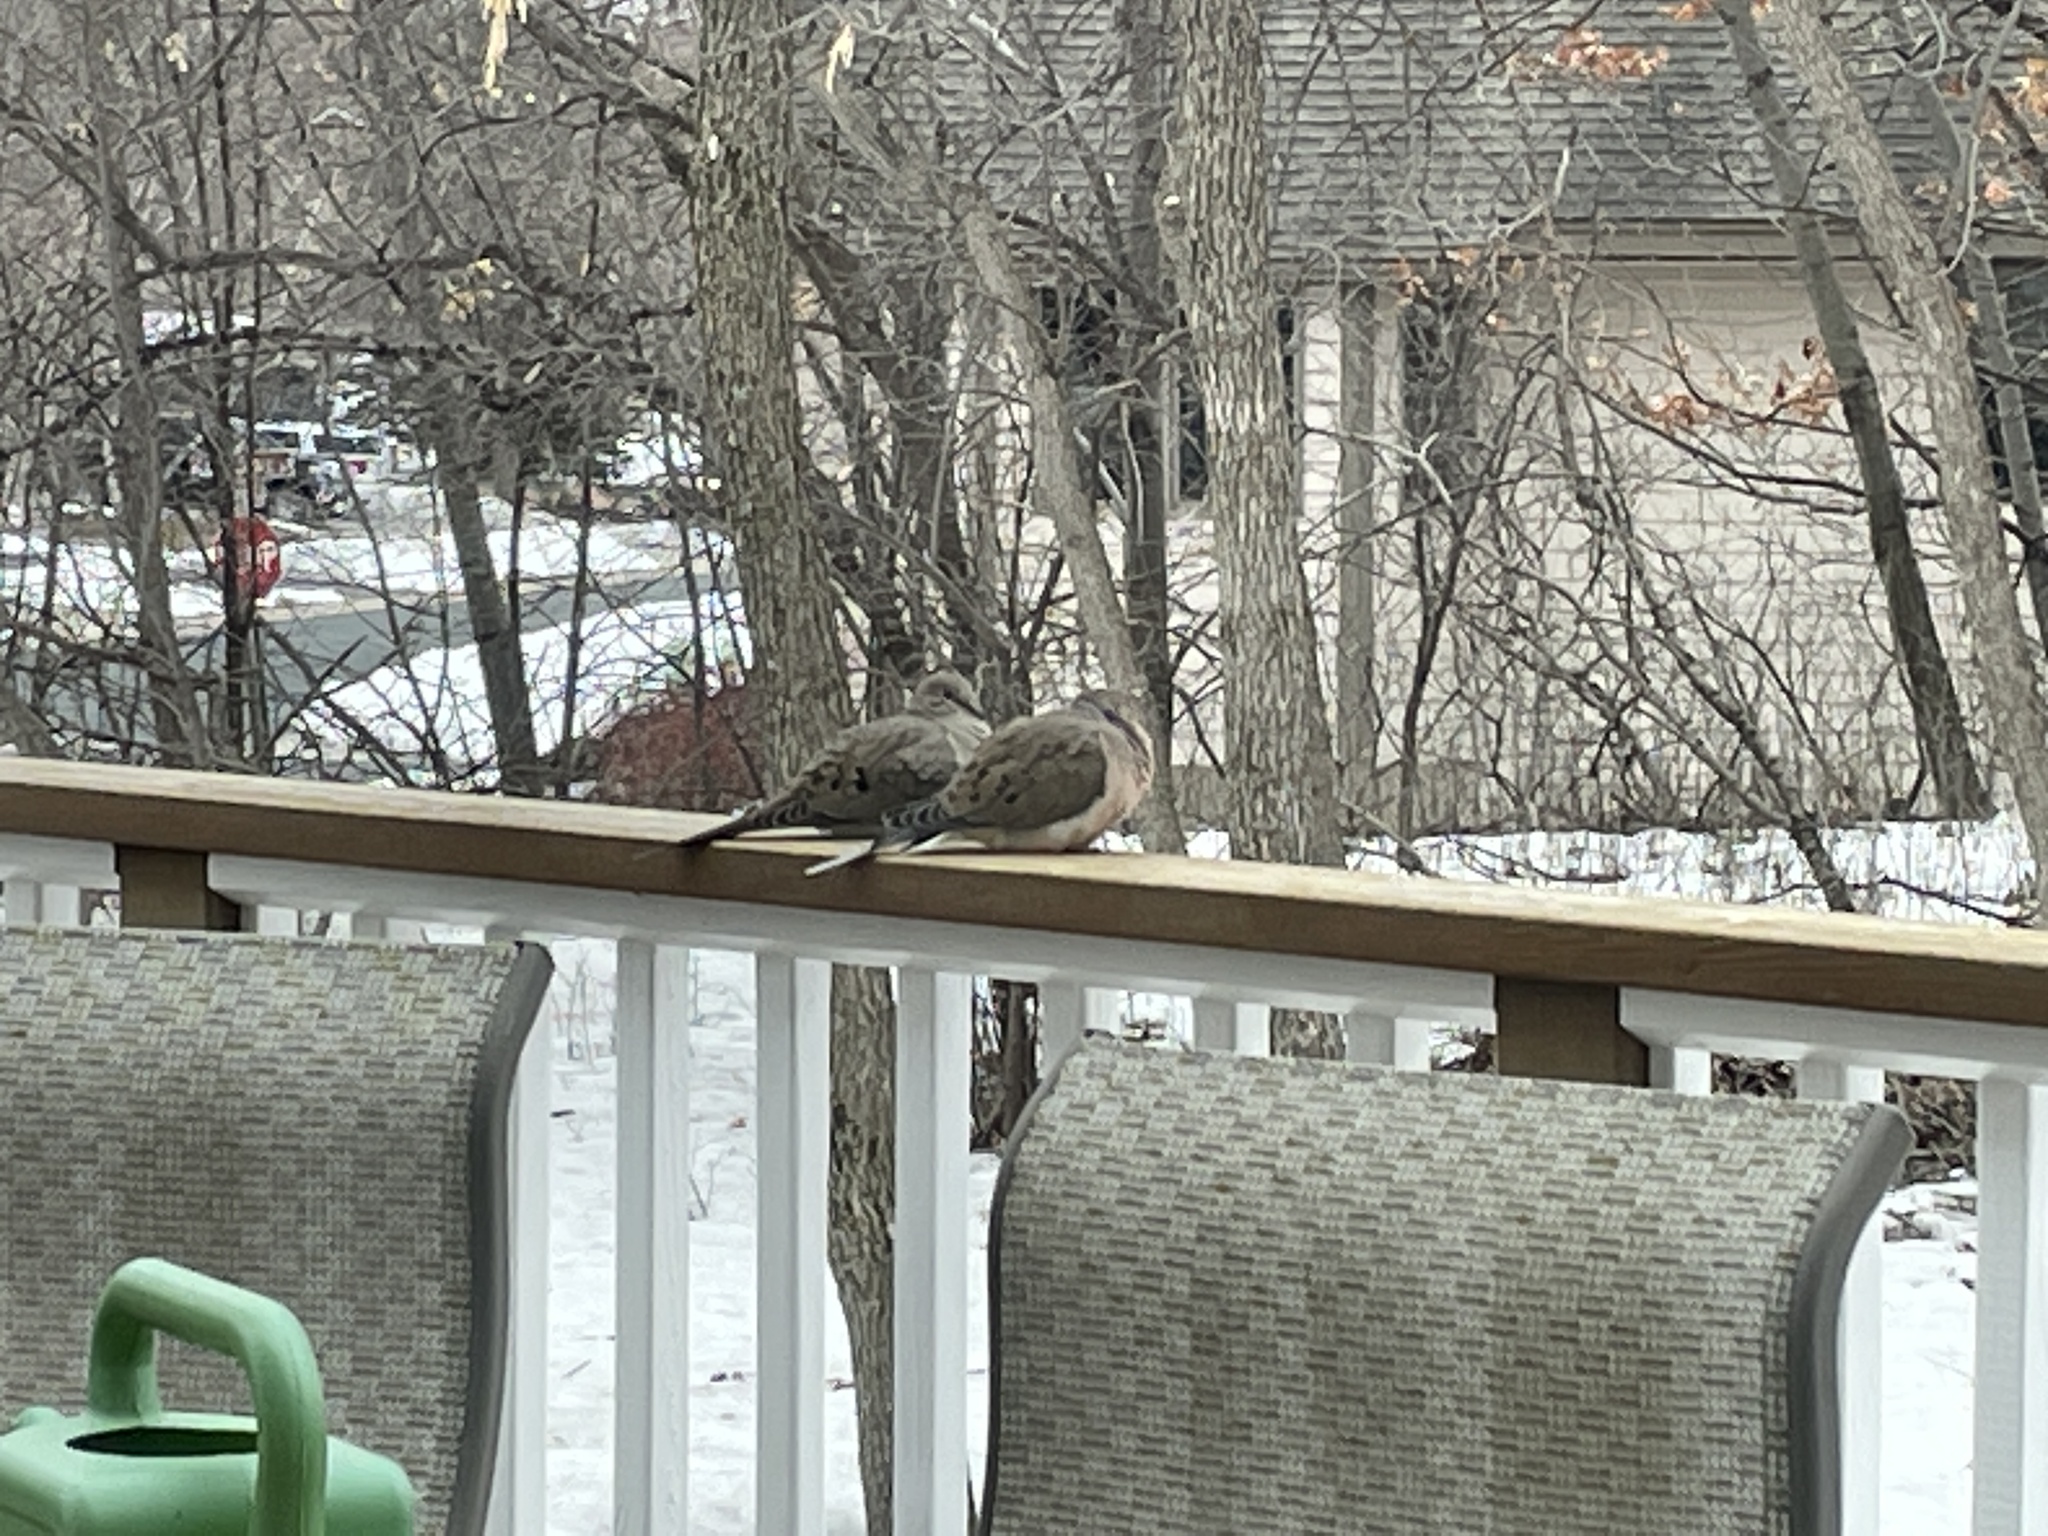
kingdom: Animalia
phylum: Chordata
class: Aves
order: Columbiformes
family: Columbidae
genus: Zenaida
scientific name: Zenaida macroura
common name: Mourning dove
